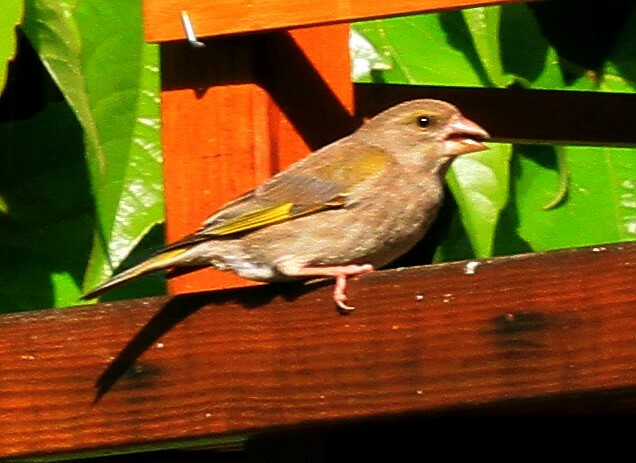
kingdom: Plantae
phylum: Tracheophyta
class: Liliopsida
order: Poales
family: Poaceae
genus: Chloris
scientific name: Chloris chloris
